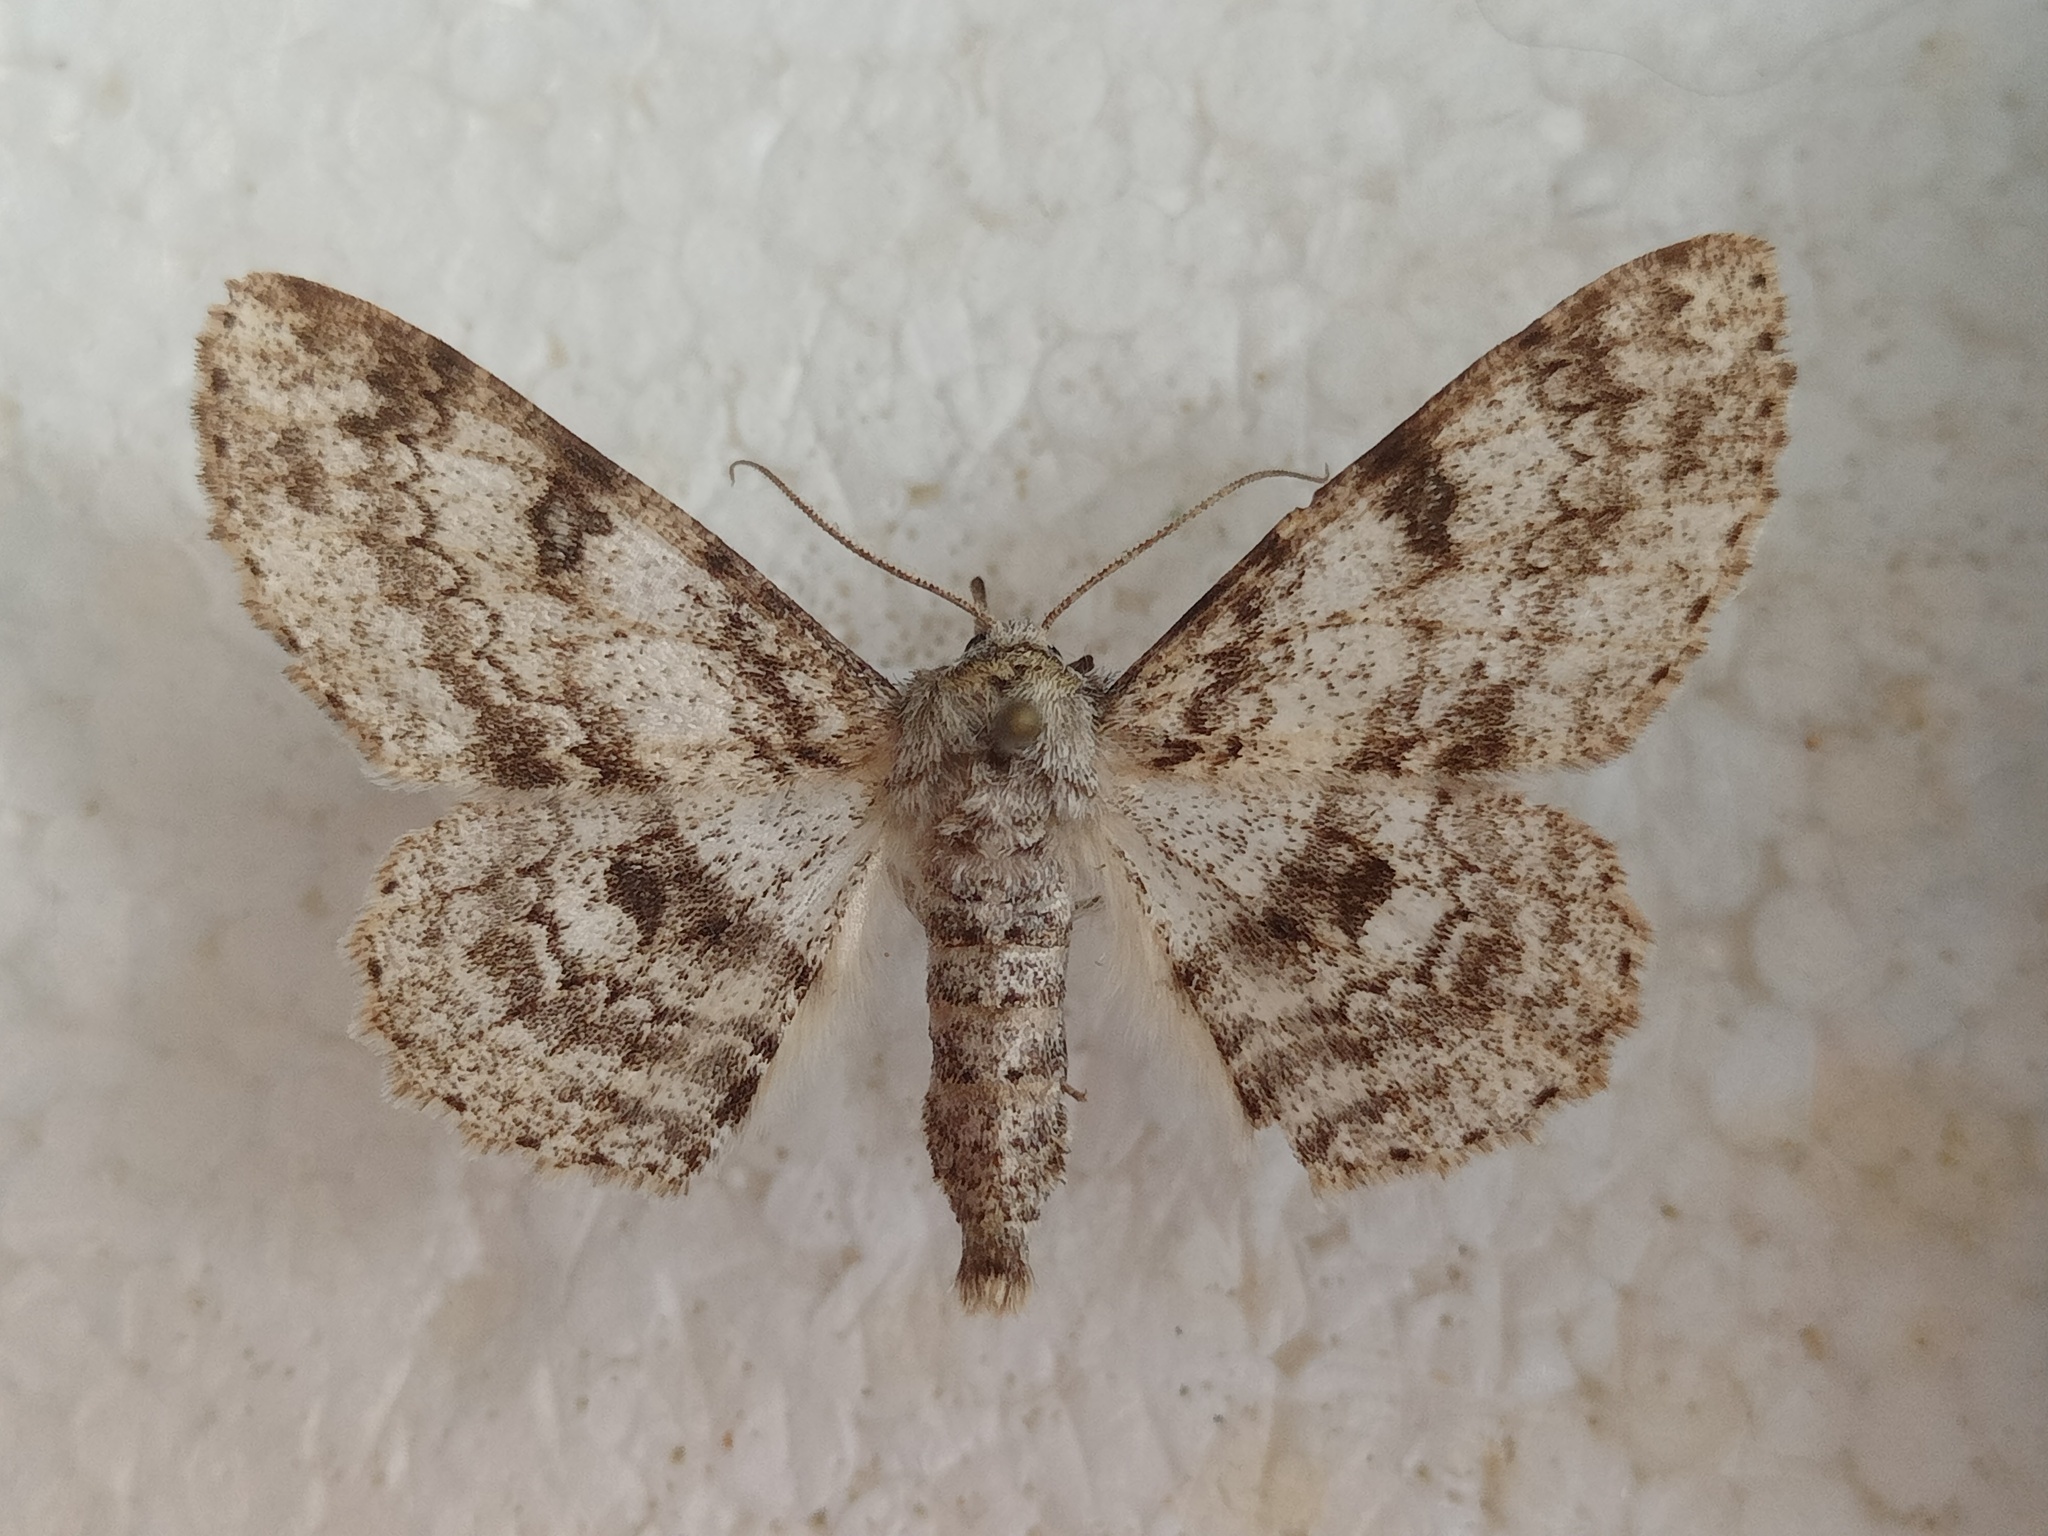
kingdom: Animalia
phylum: Arthropoda
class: Insecta
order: Lepidoptera
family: Geometridae
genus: Ascotis
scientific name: Ascotis selenaria
